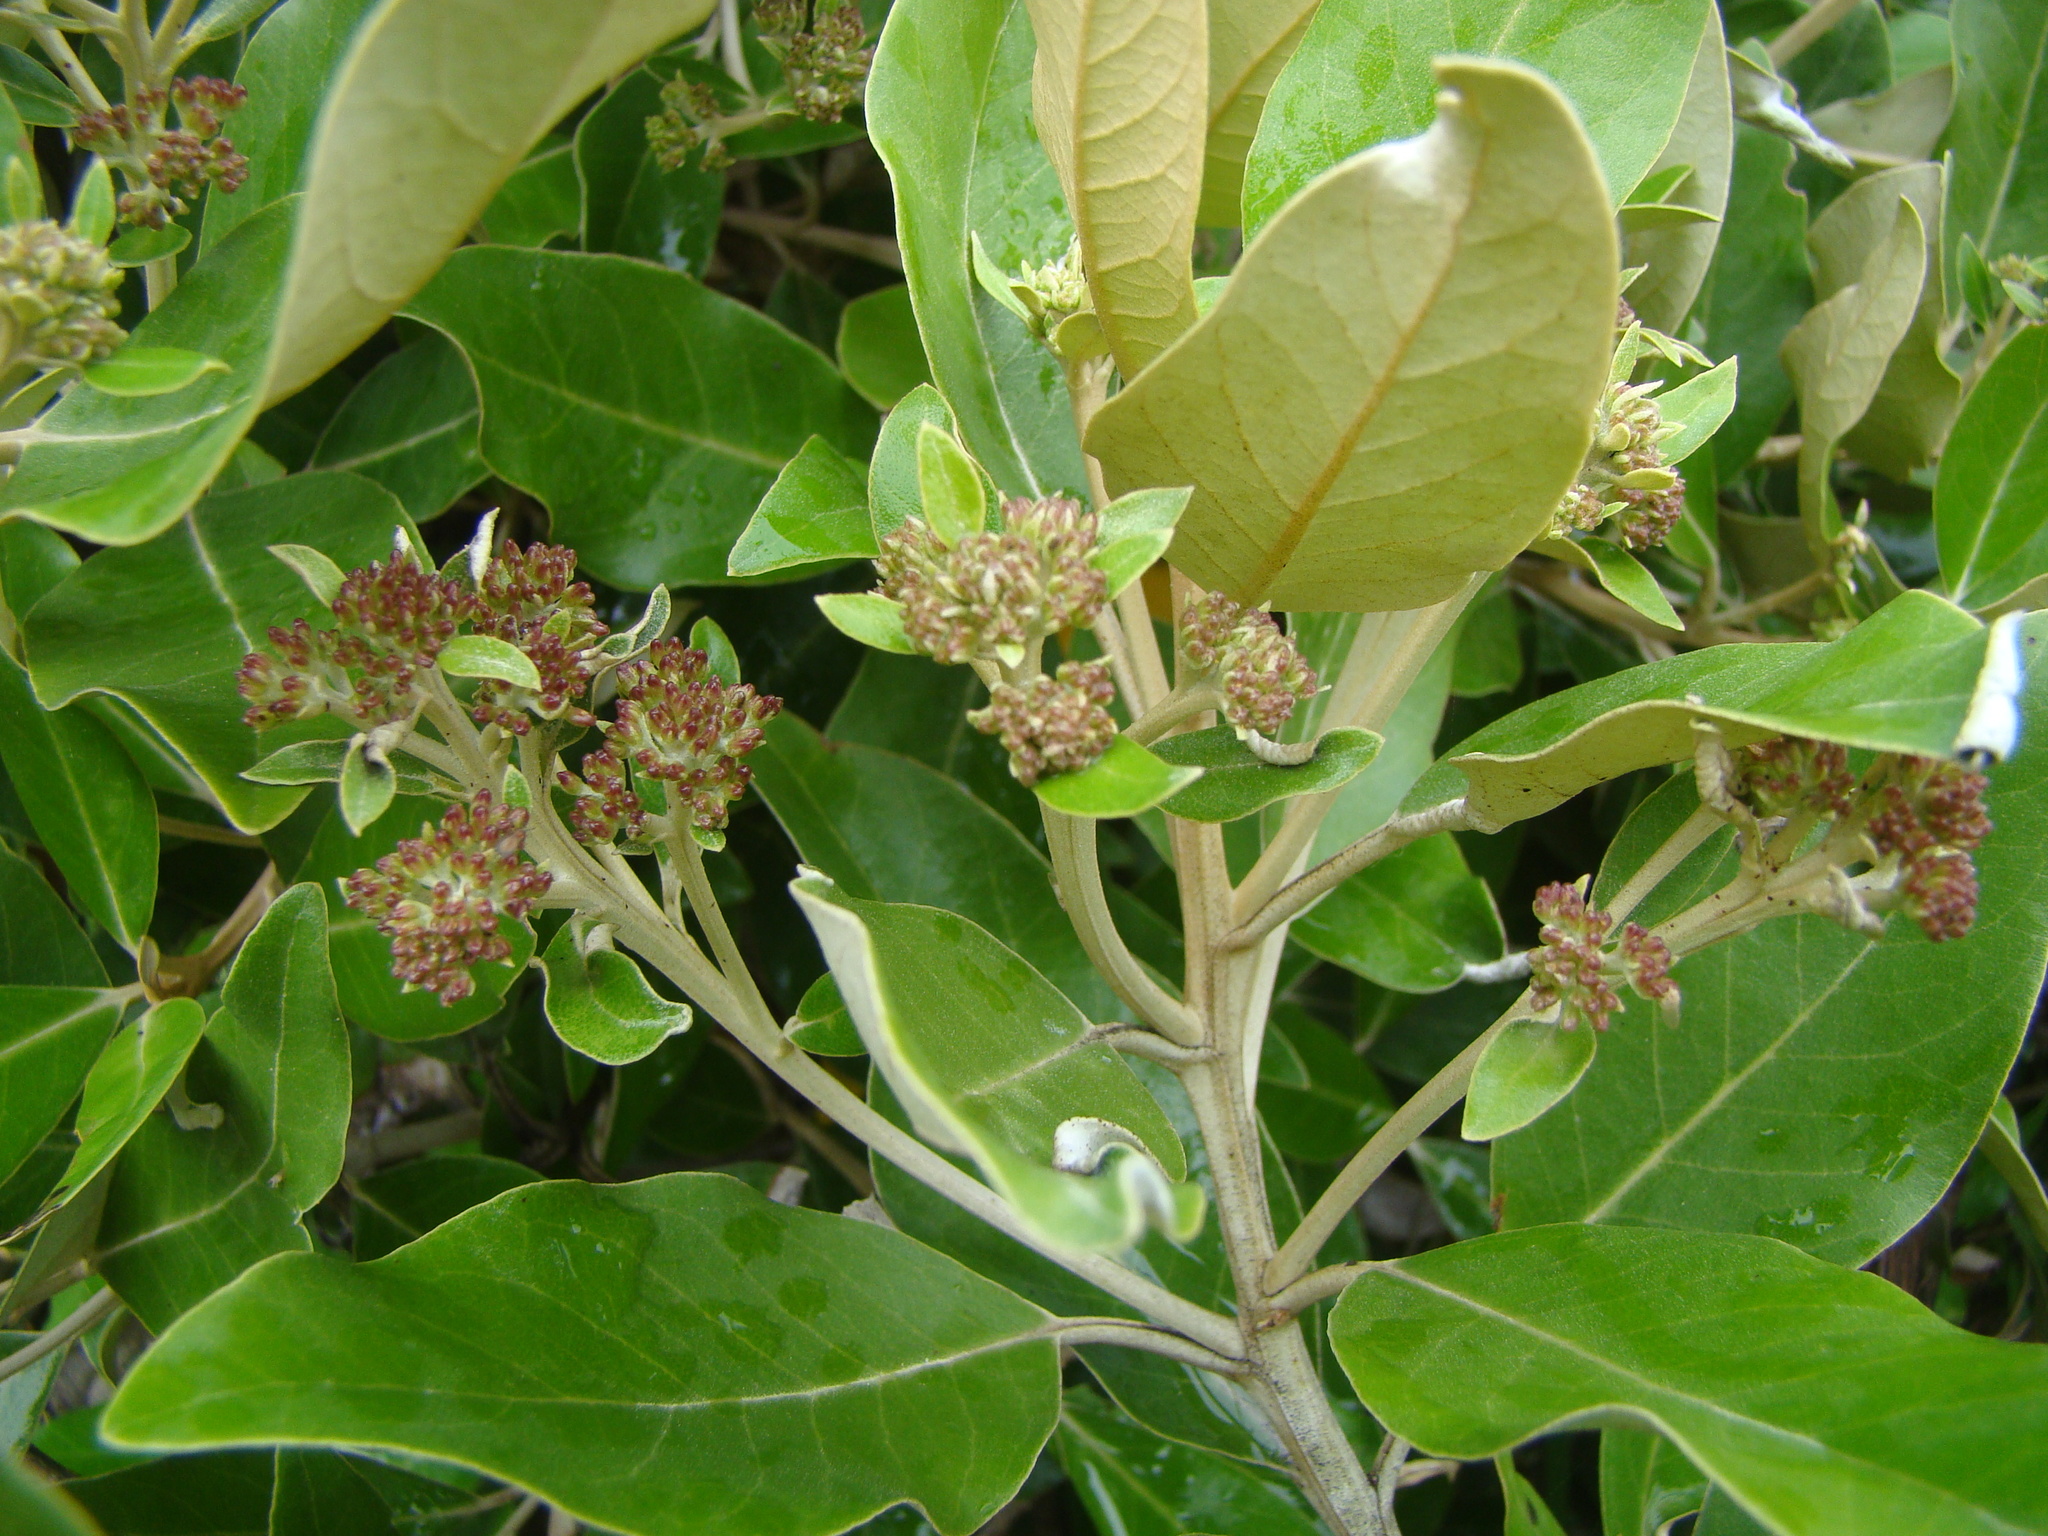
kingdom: Plantae
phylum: Tracheophyta
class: Magnoliopsida
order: Asterales
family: Asteraceae
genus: Olearia
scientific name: Olearia avicenniifolia
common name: Mangrove-leaf daisybush
